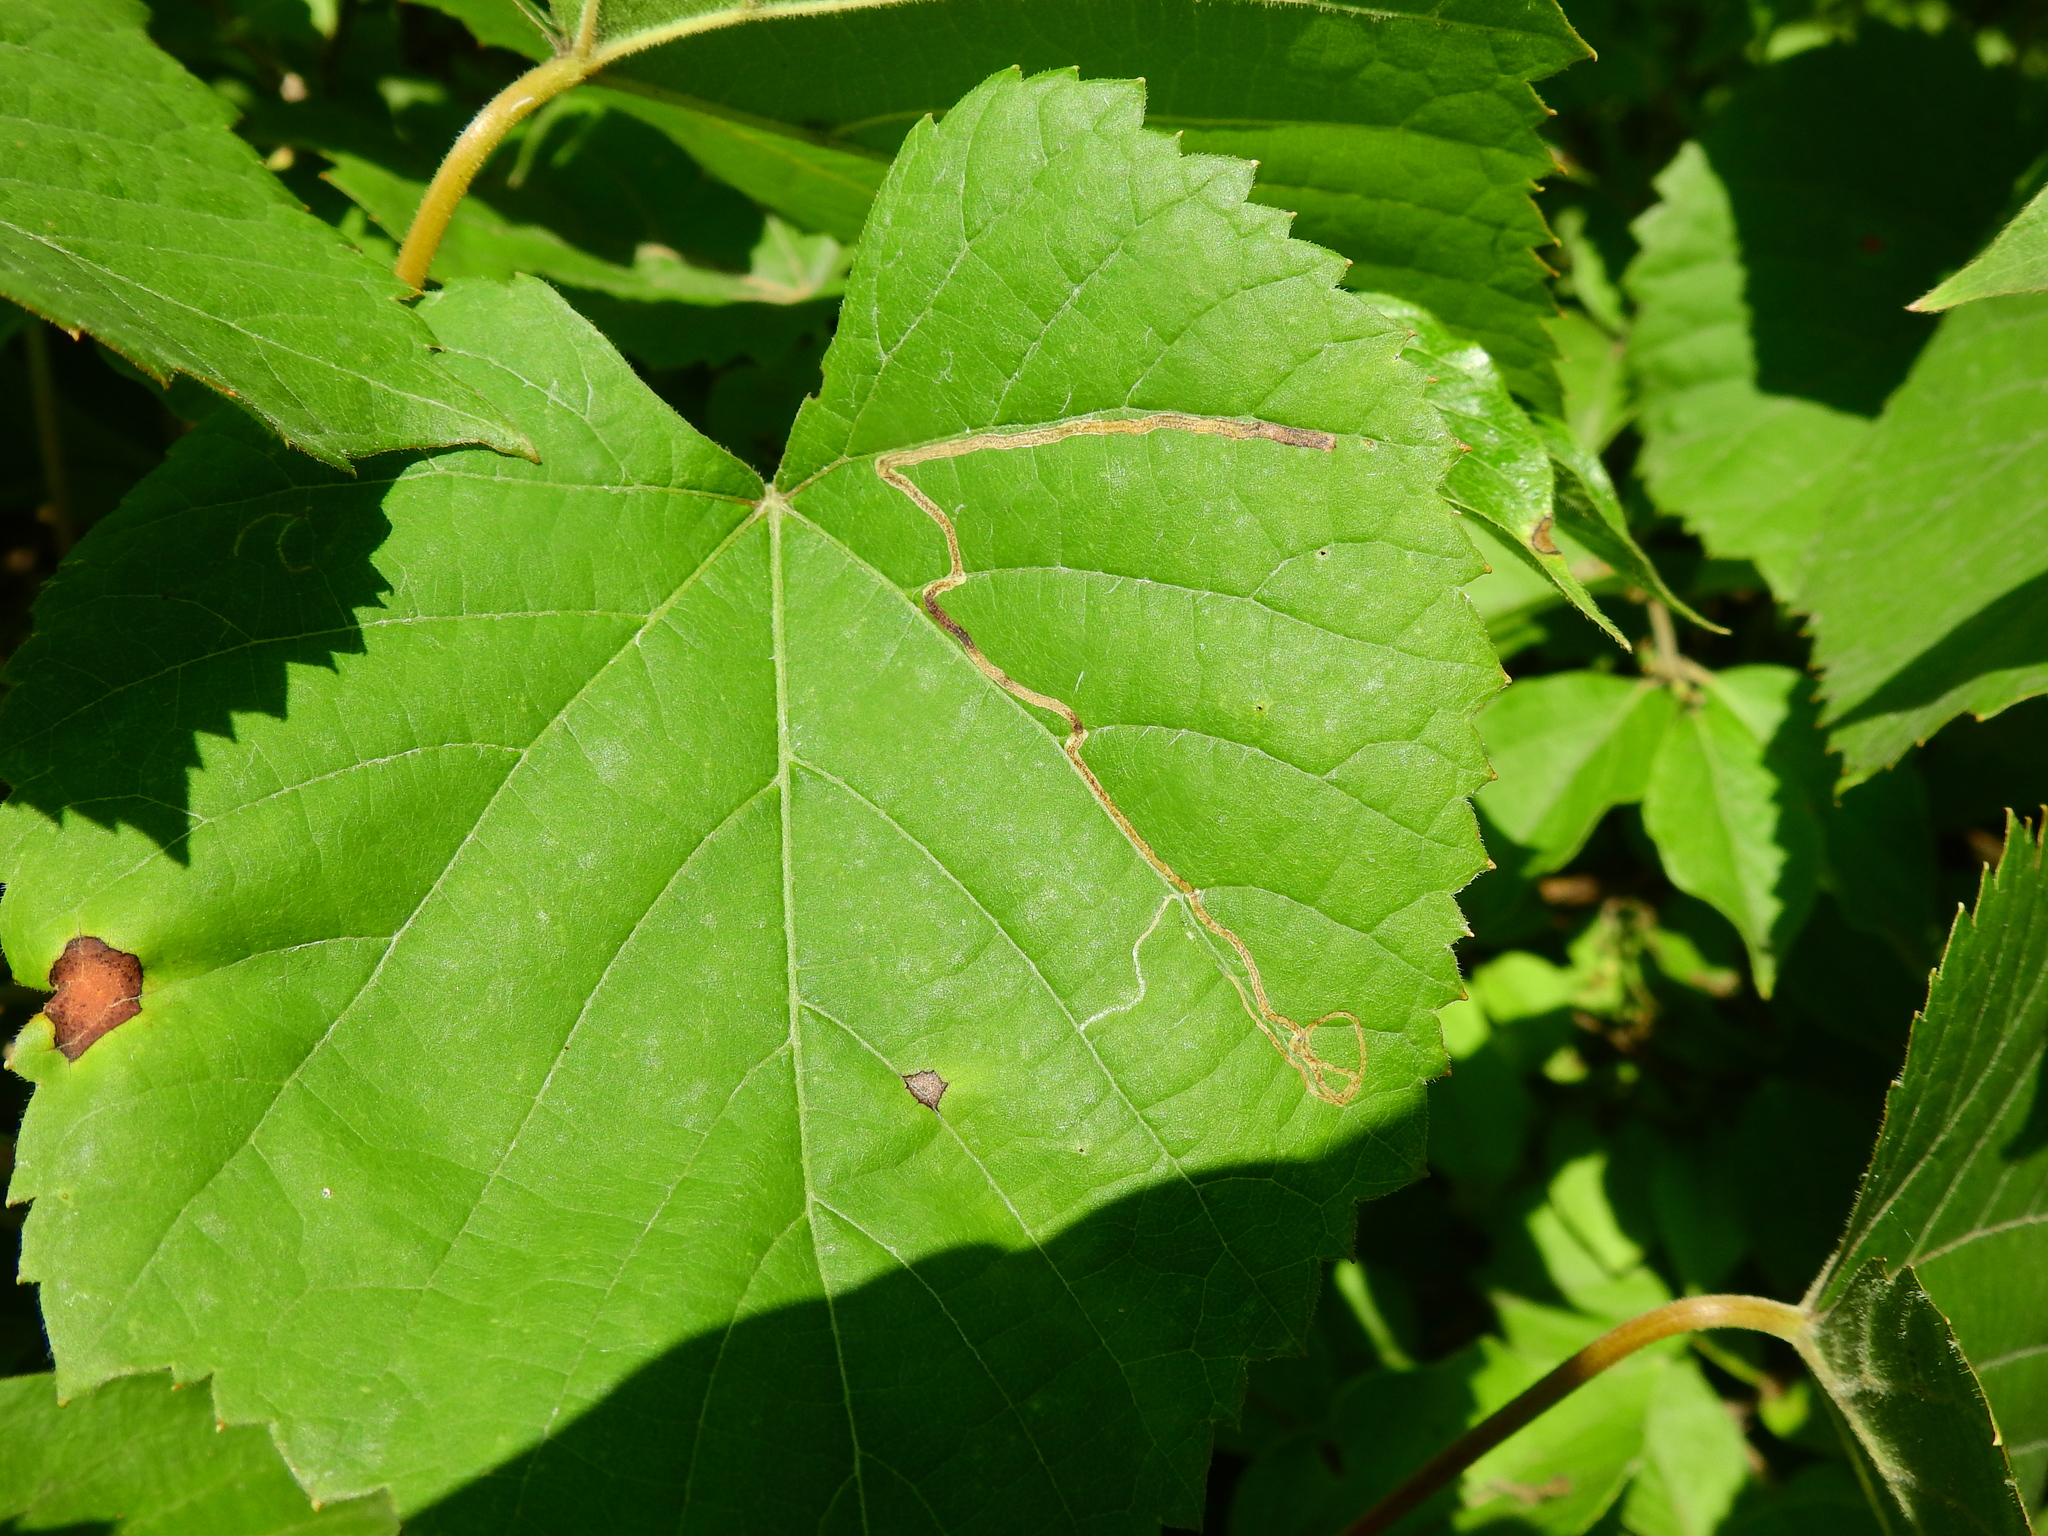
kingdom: Animalia
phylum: Arthropoda
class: Insecta
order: Lepidoptera
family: Gracillariidae
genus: Phyllocnistis
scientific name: Phyllocnistis vitifoliella
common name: Grape leaf-miner moth
